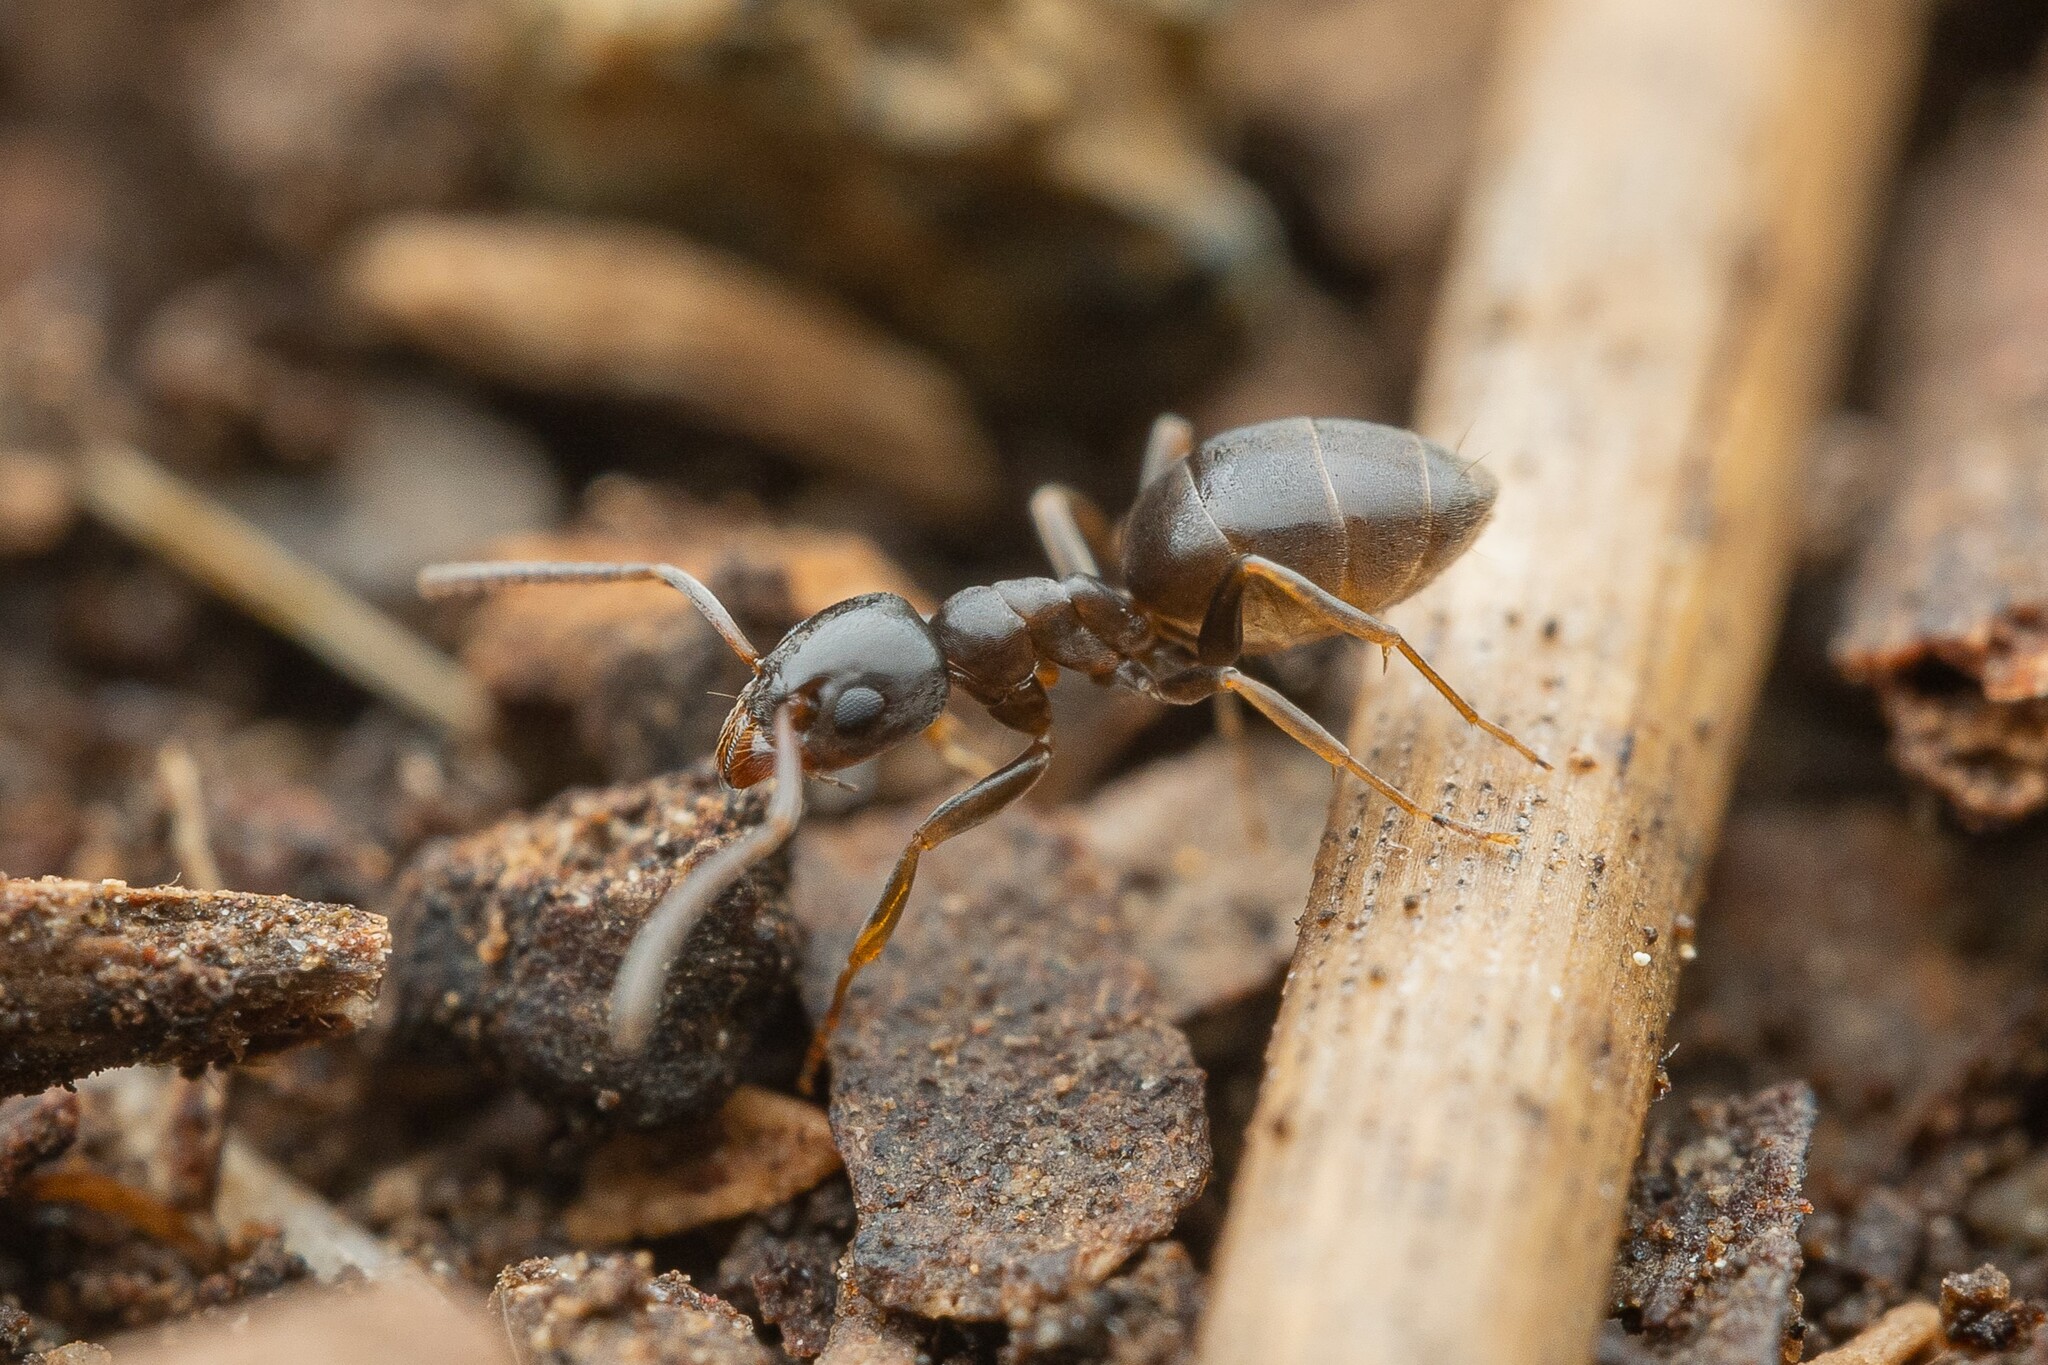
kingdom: Animalia
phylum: Arthropoda
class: Insecta
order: Hymenoptera
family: Formicidae
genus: Tapinoma
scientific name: Tapinoma sessile
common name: Odorous house ant
